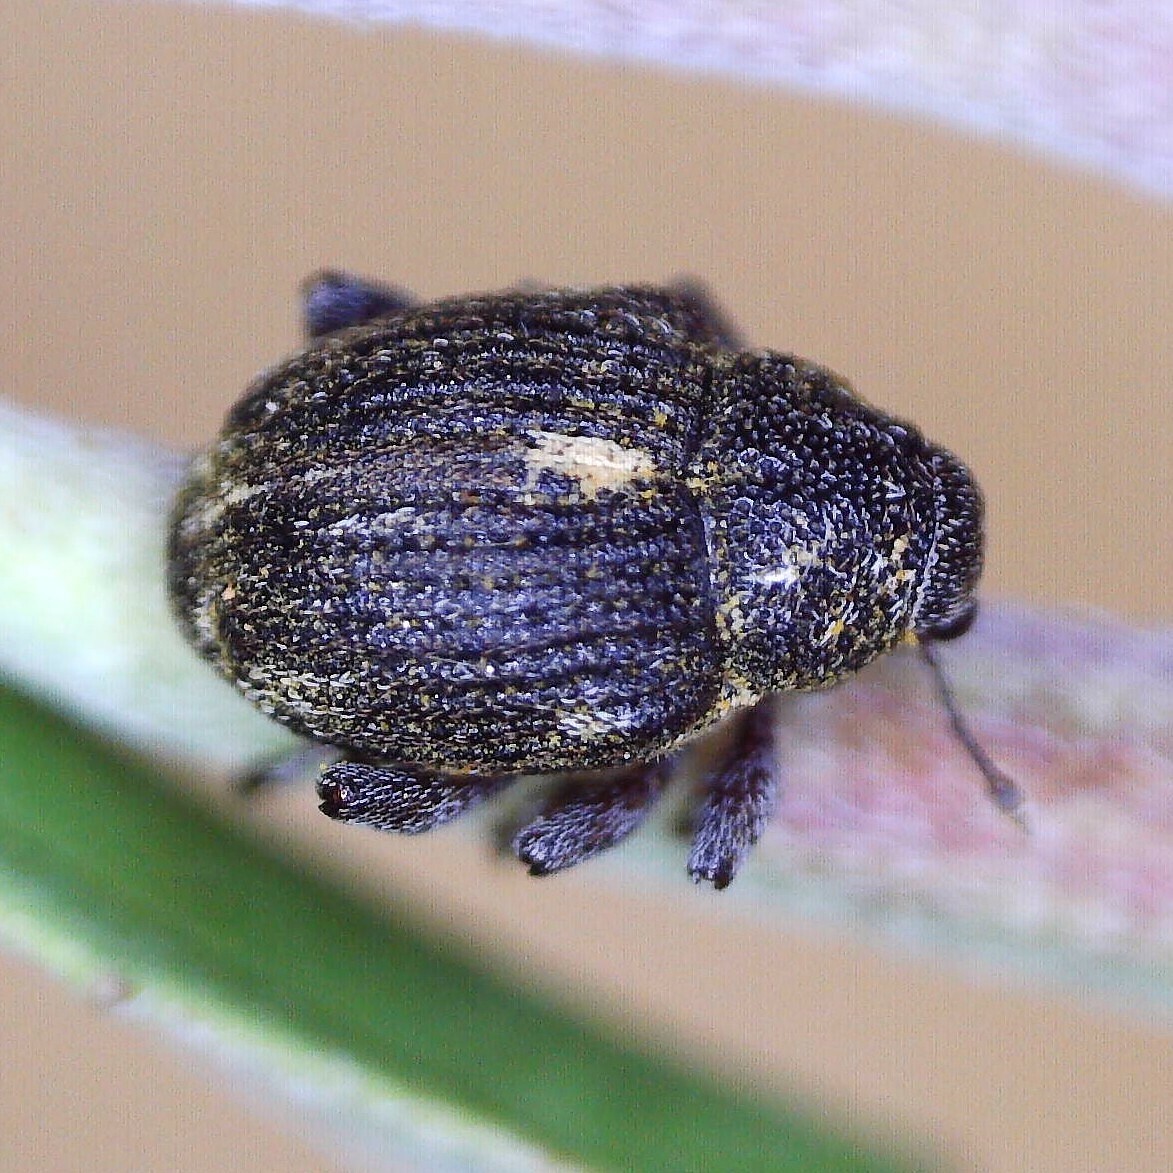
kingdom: Animalia
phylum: Arthropoda
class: Insecta
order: Coleoptera
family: Curculionidae
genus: Rhinoncus
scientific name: Rhinoncus leucostigma
